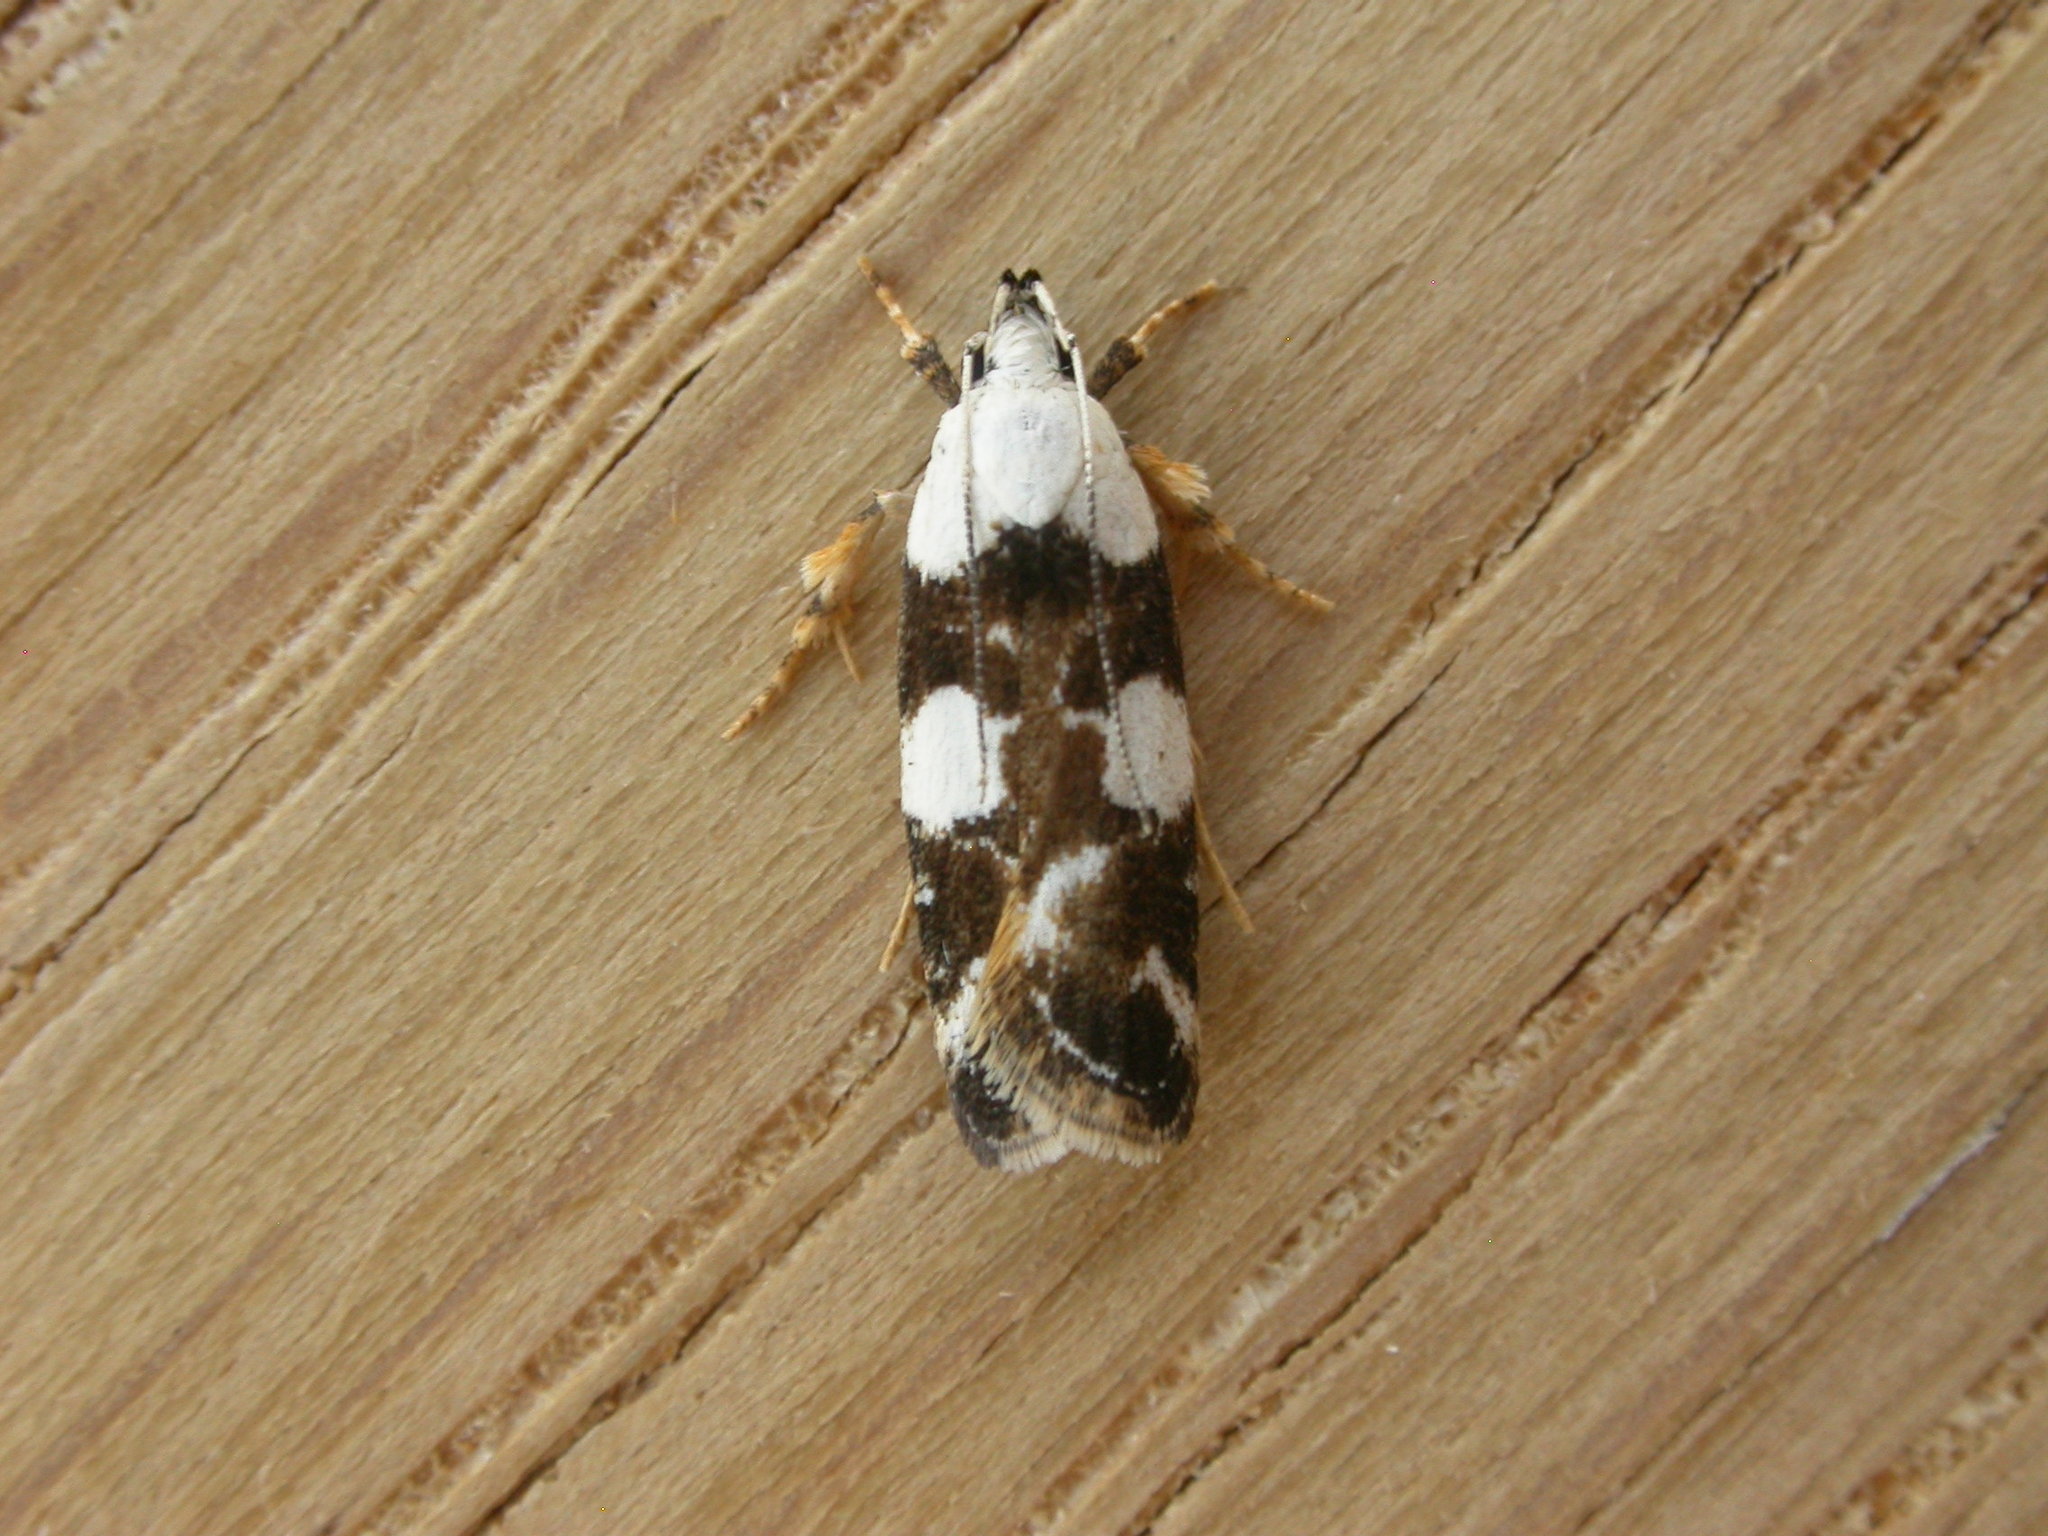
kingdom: Animalia
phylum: Arthropoda
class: Insecta
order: Lepidoptera
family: Gelechiidae
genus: Ardozyga
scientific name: Ardozyga Orthoptila abruptella
